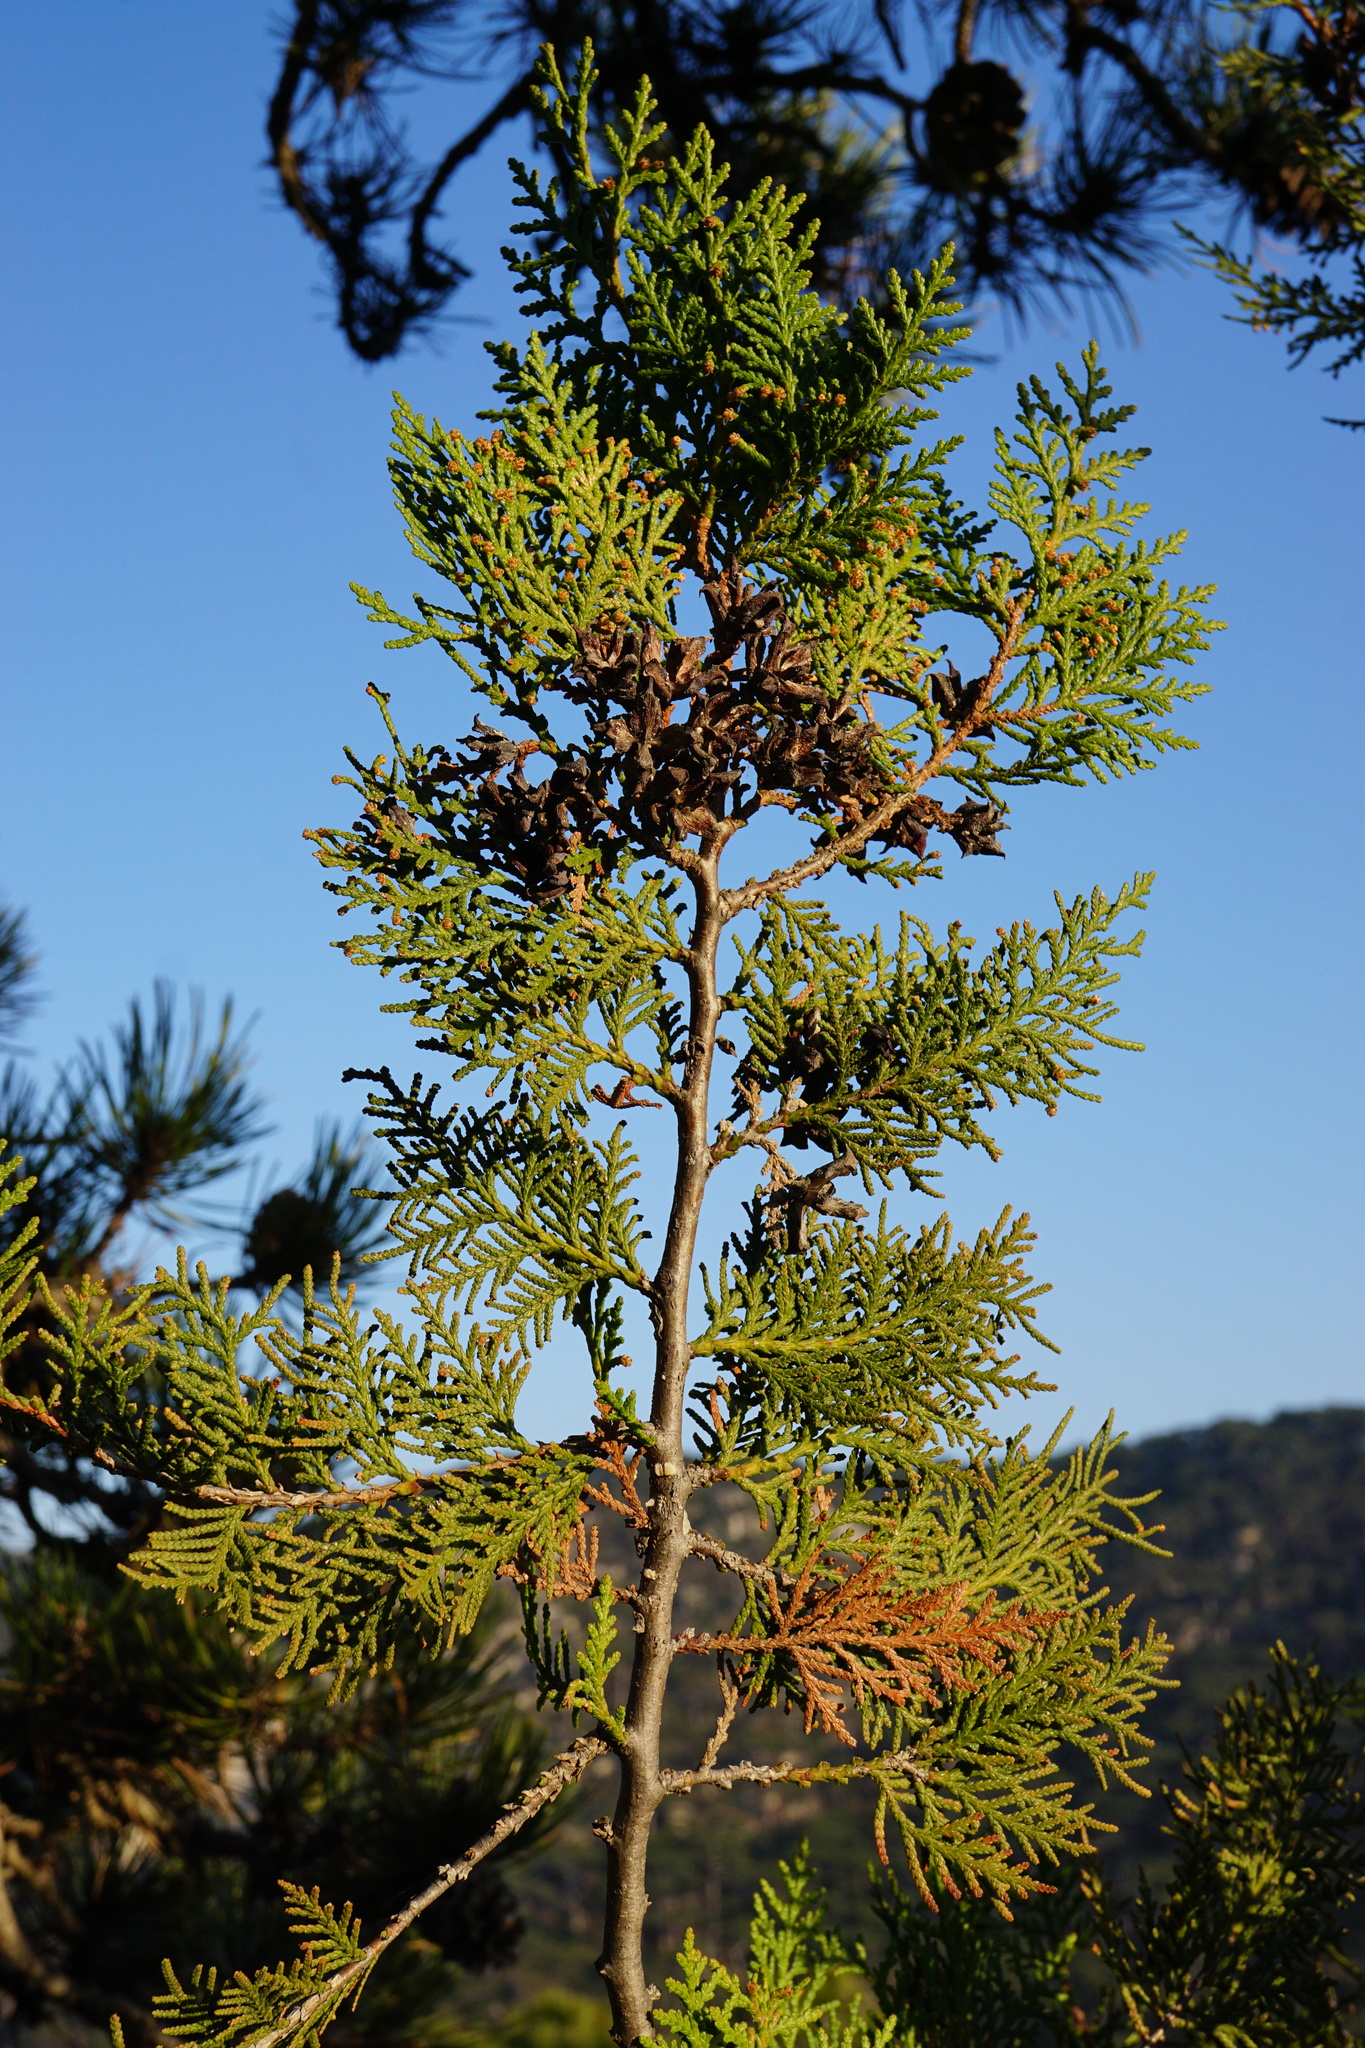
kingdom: Plantae
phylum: Tracheophyta
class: Pinopsida
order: Pinales
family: Cupressaceae
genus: Platycladus
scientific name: Platycladus orientalis
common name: Chinese thuja
